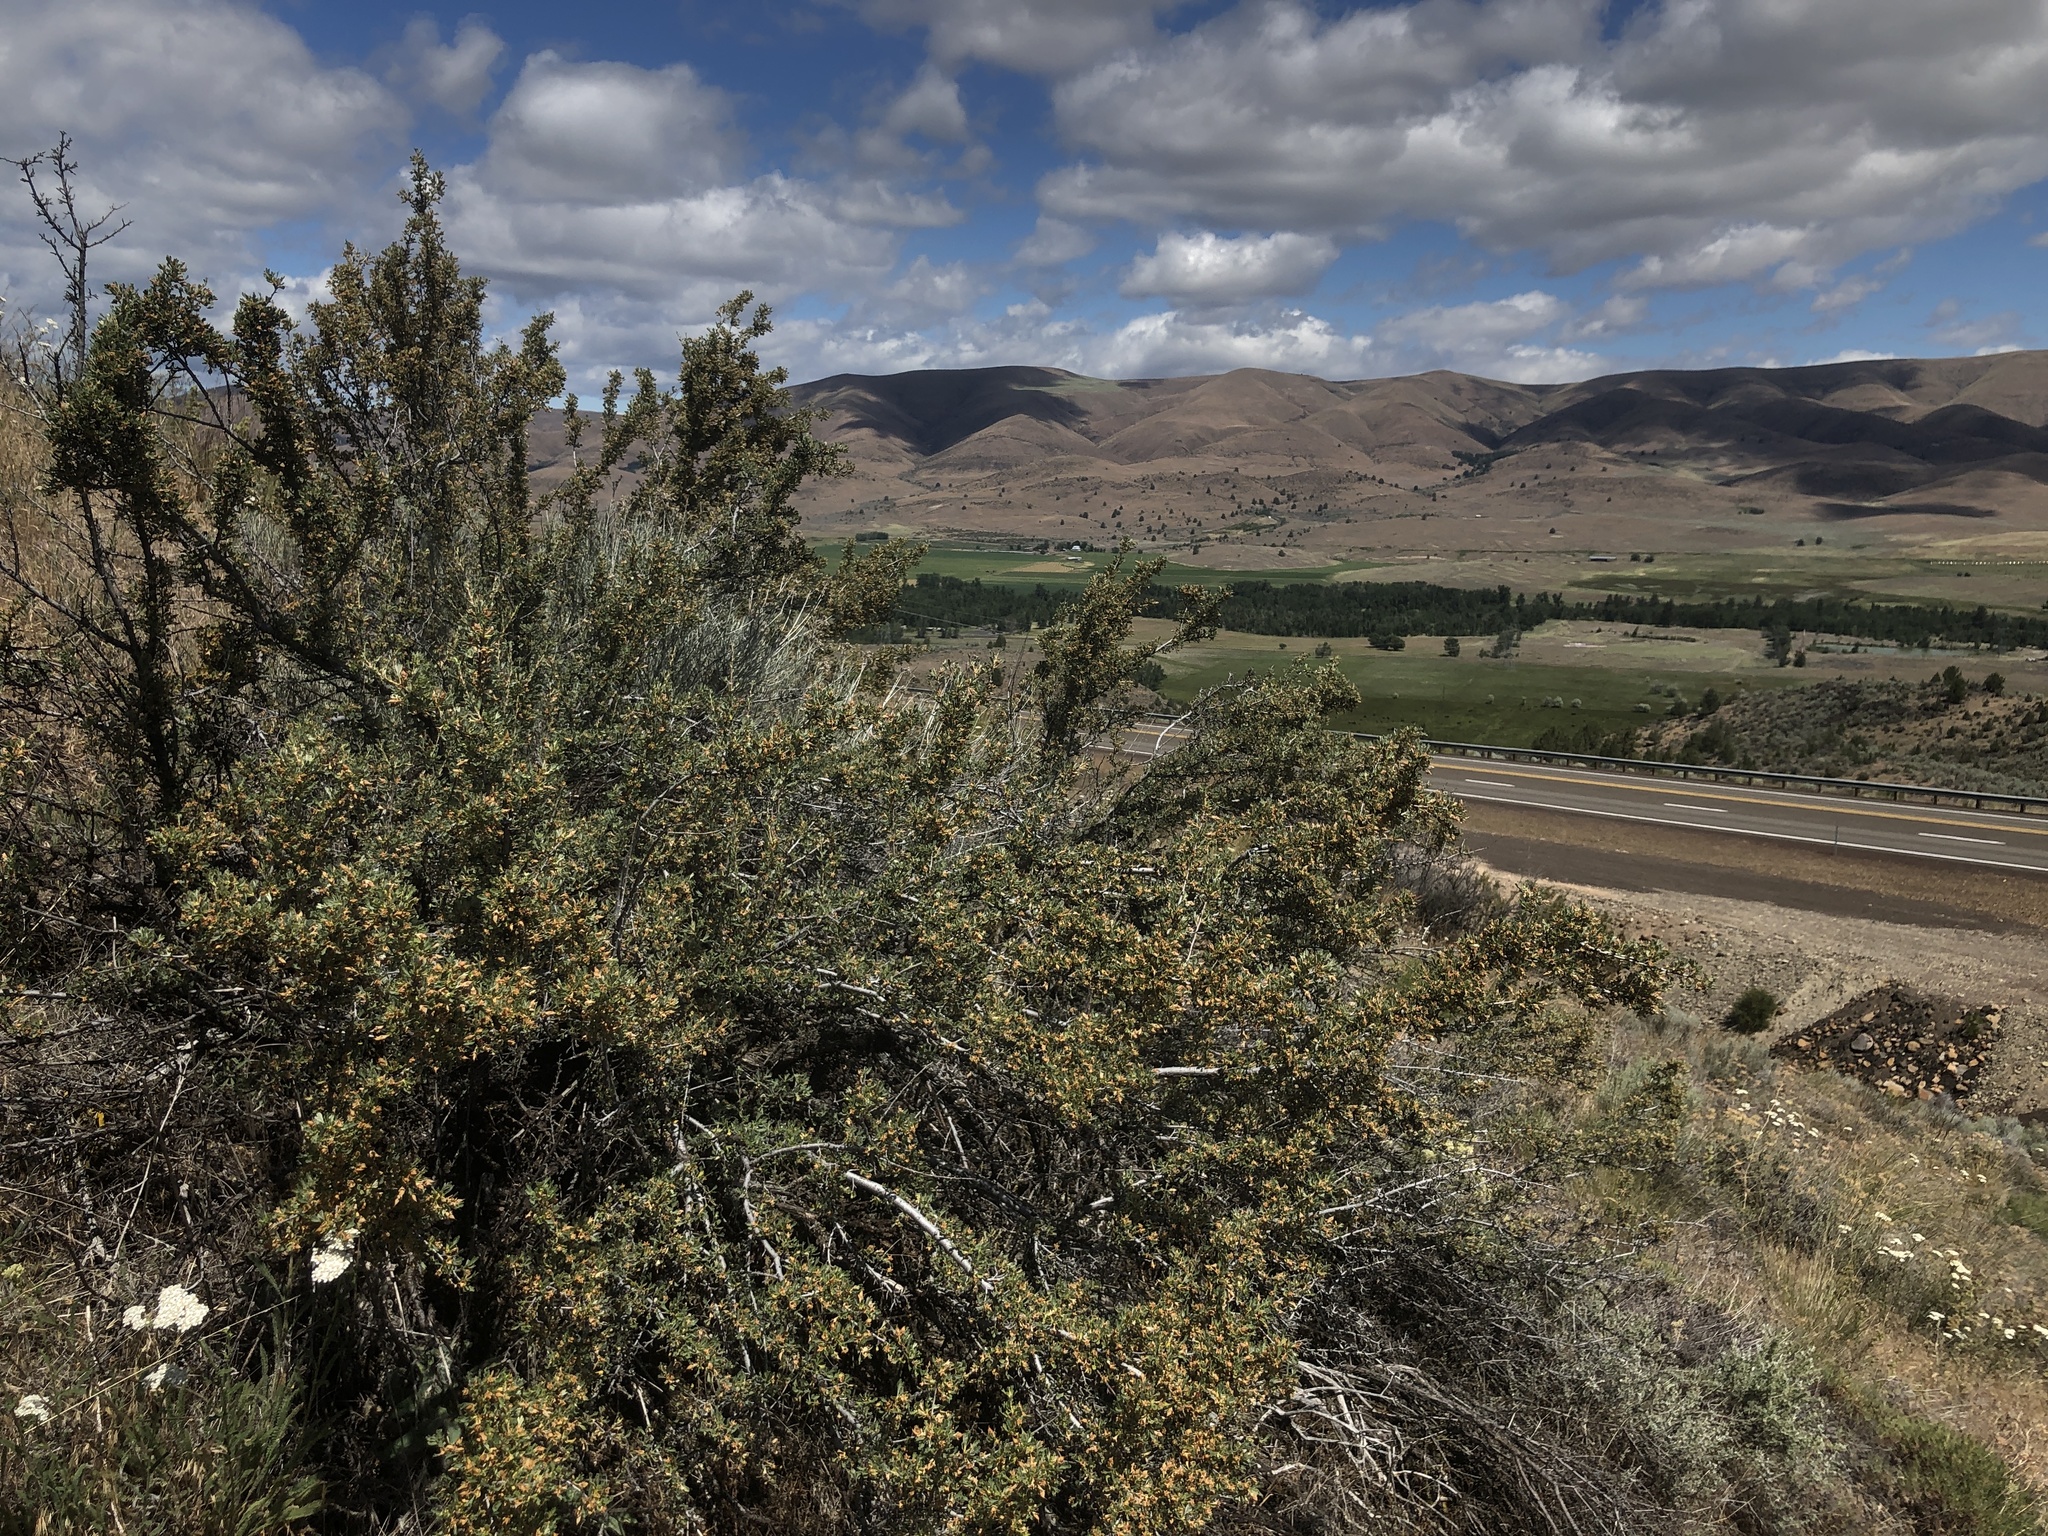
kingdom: Plantae
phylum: Tracheophyta
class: Magnoliopsida
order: Rosales
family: Rosaceae
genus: Purshia
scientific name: Purshia tridentata
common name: Antelope bitterbrush
